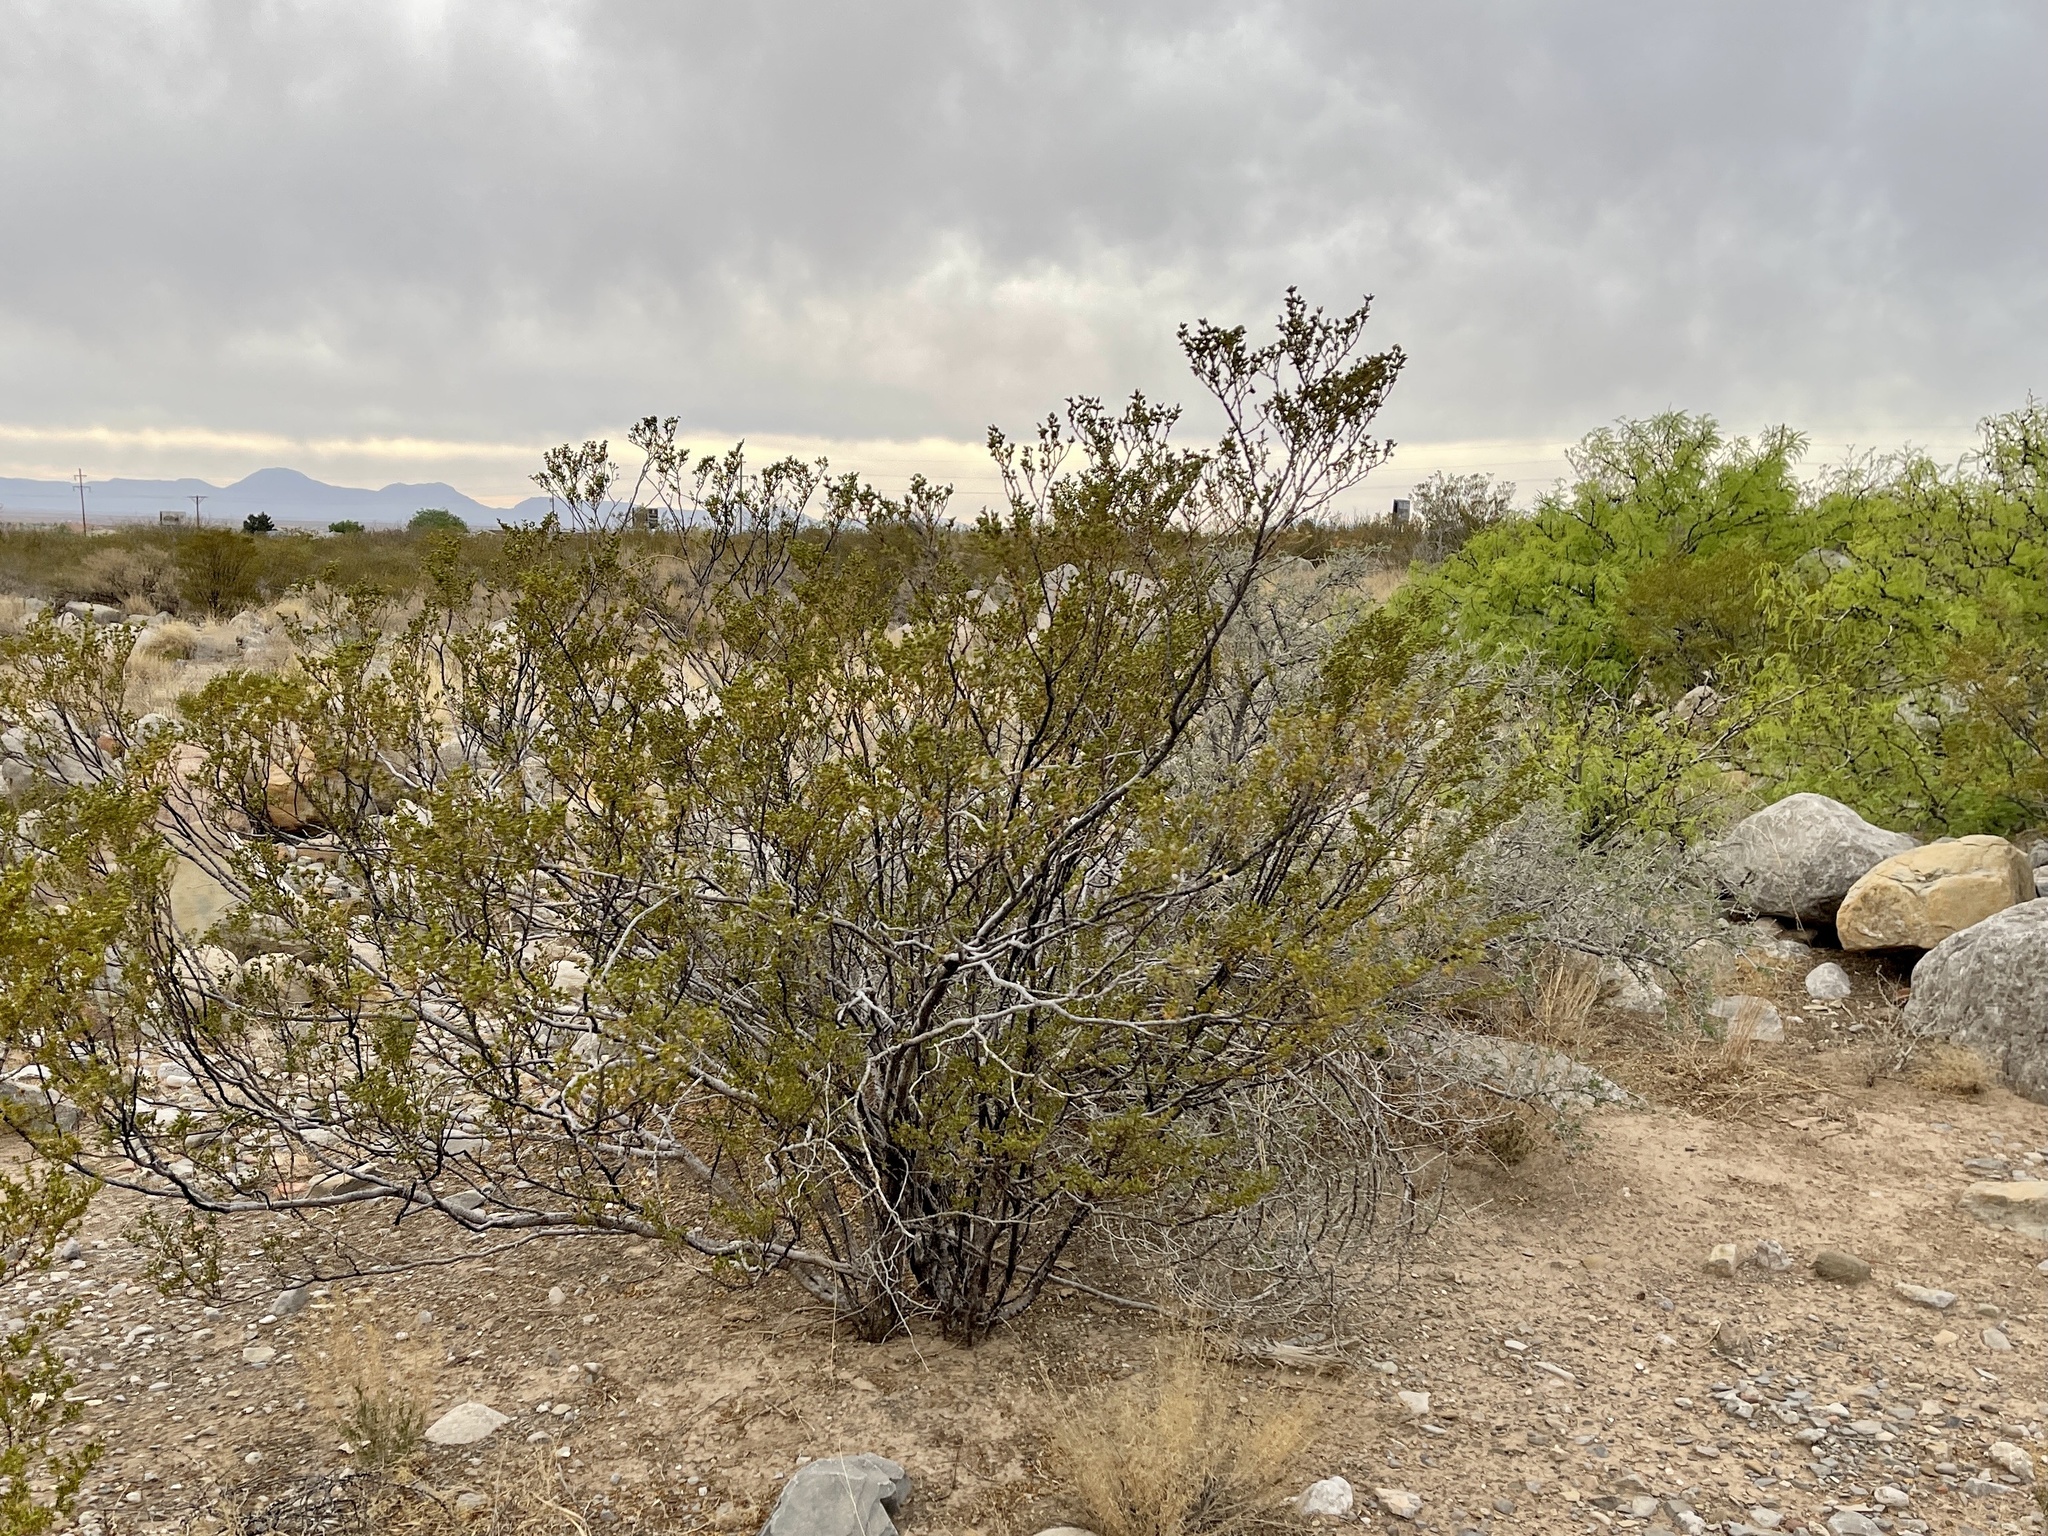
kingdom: Plantae
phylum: Tracheophyta
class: Magnoliopsida
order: Zygophyllales
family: Zygophyllaceae
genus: Larrea
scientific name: Larrea tridentata
